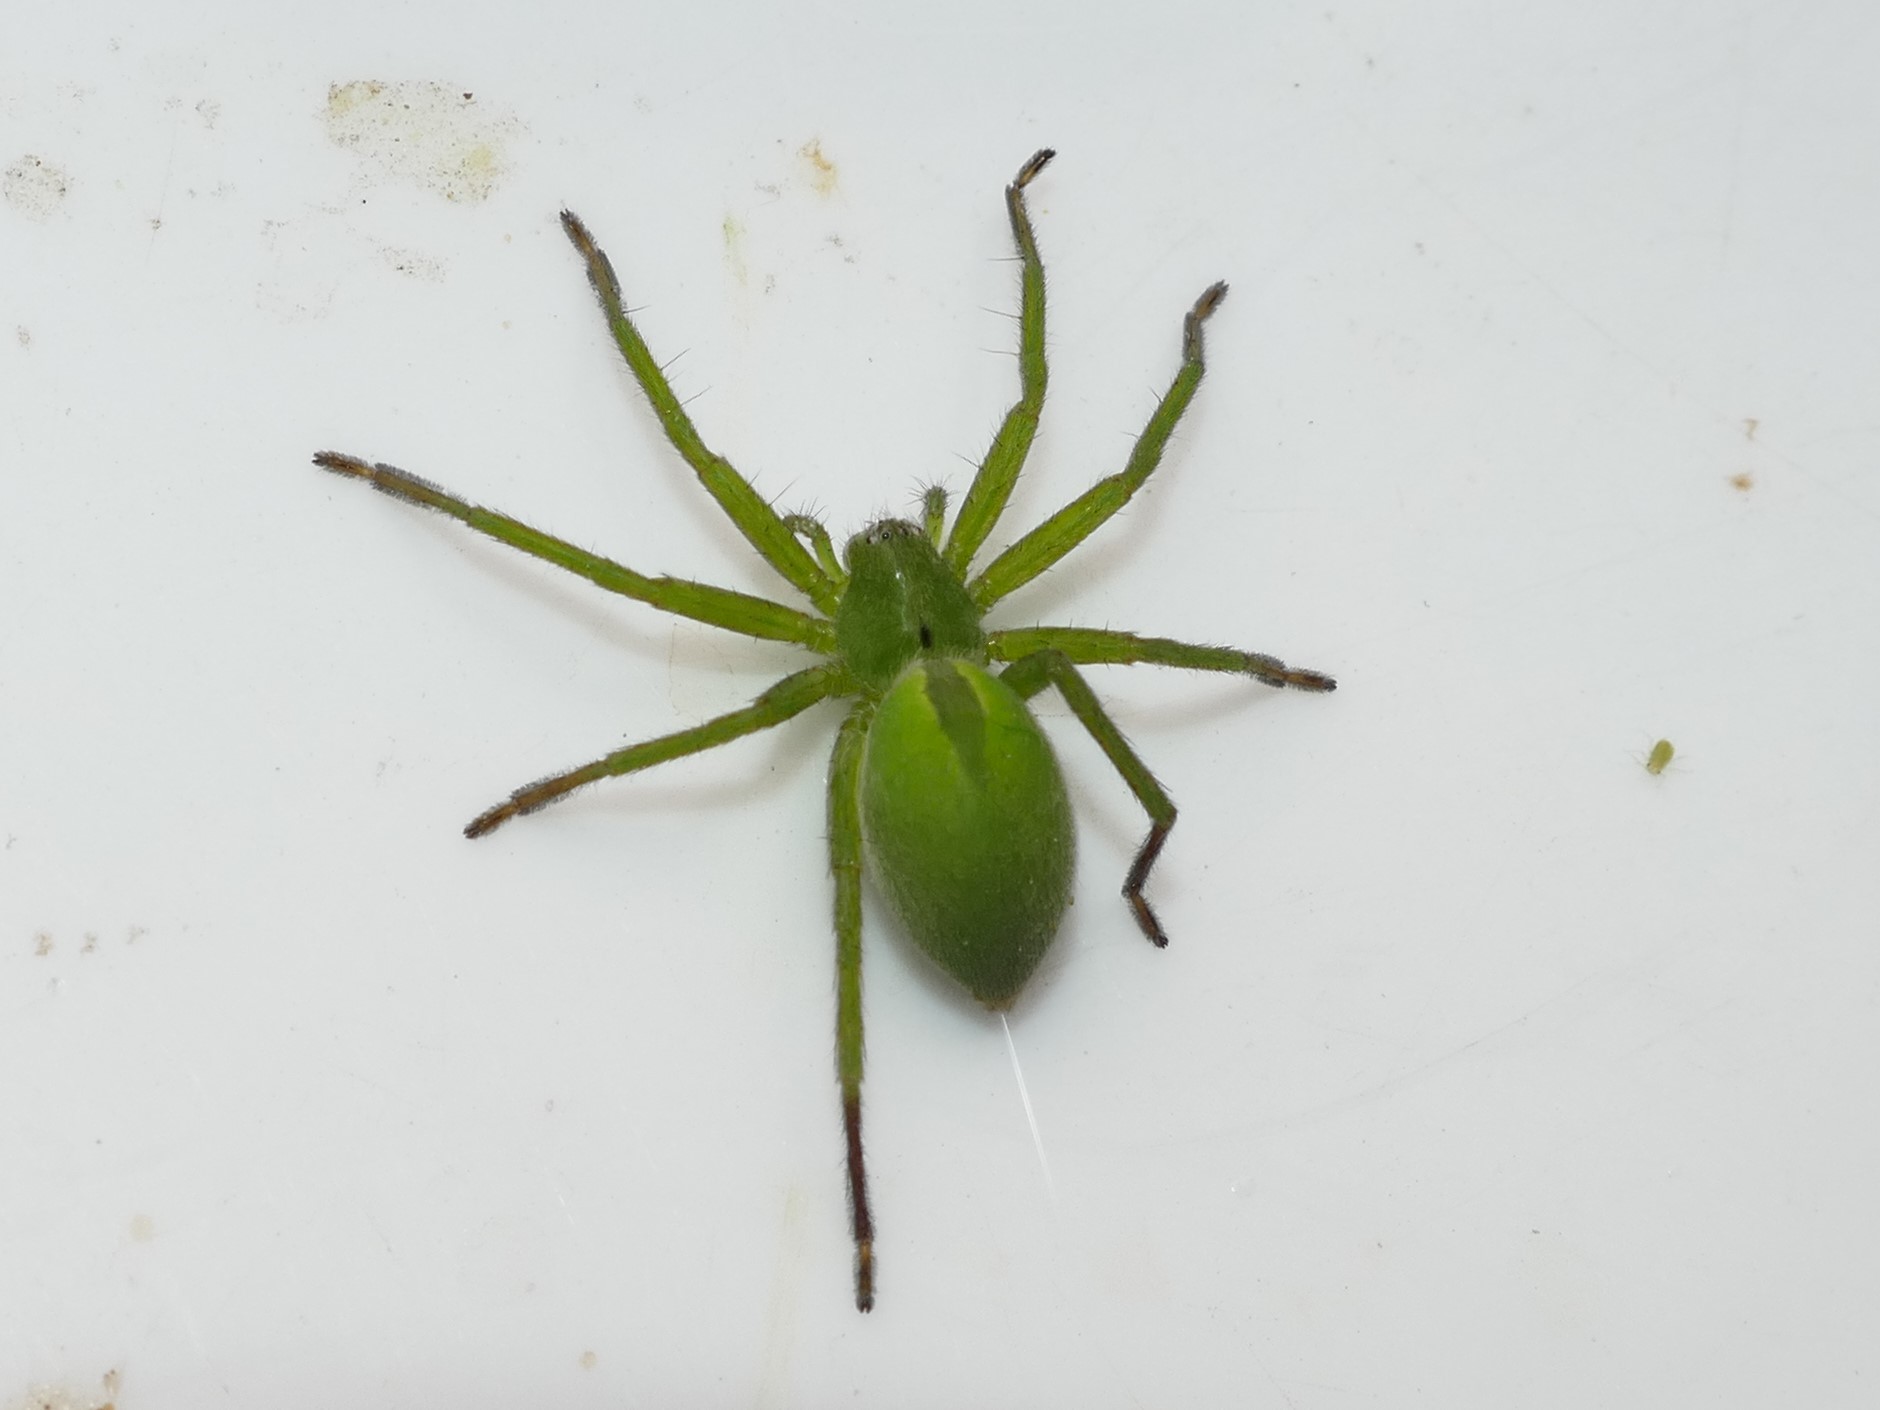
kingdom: Animalia
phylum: Arthropoda
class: Arachnida
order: Araneae
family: Sparassidae
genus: Micrommata
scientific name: Micrommata ligurina
